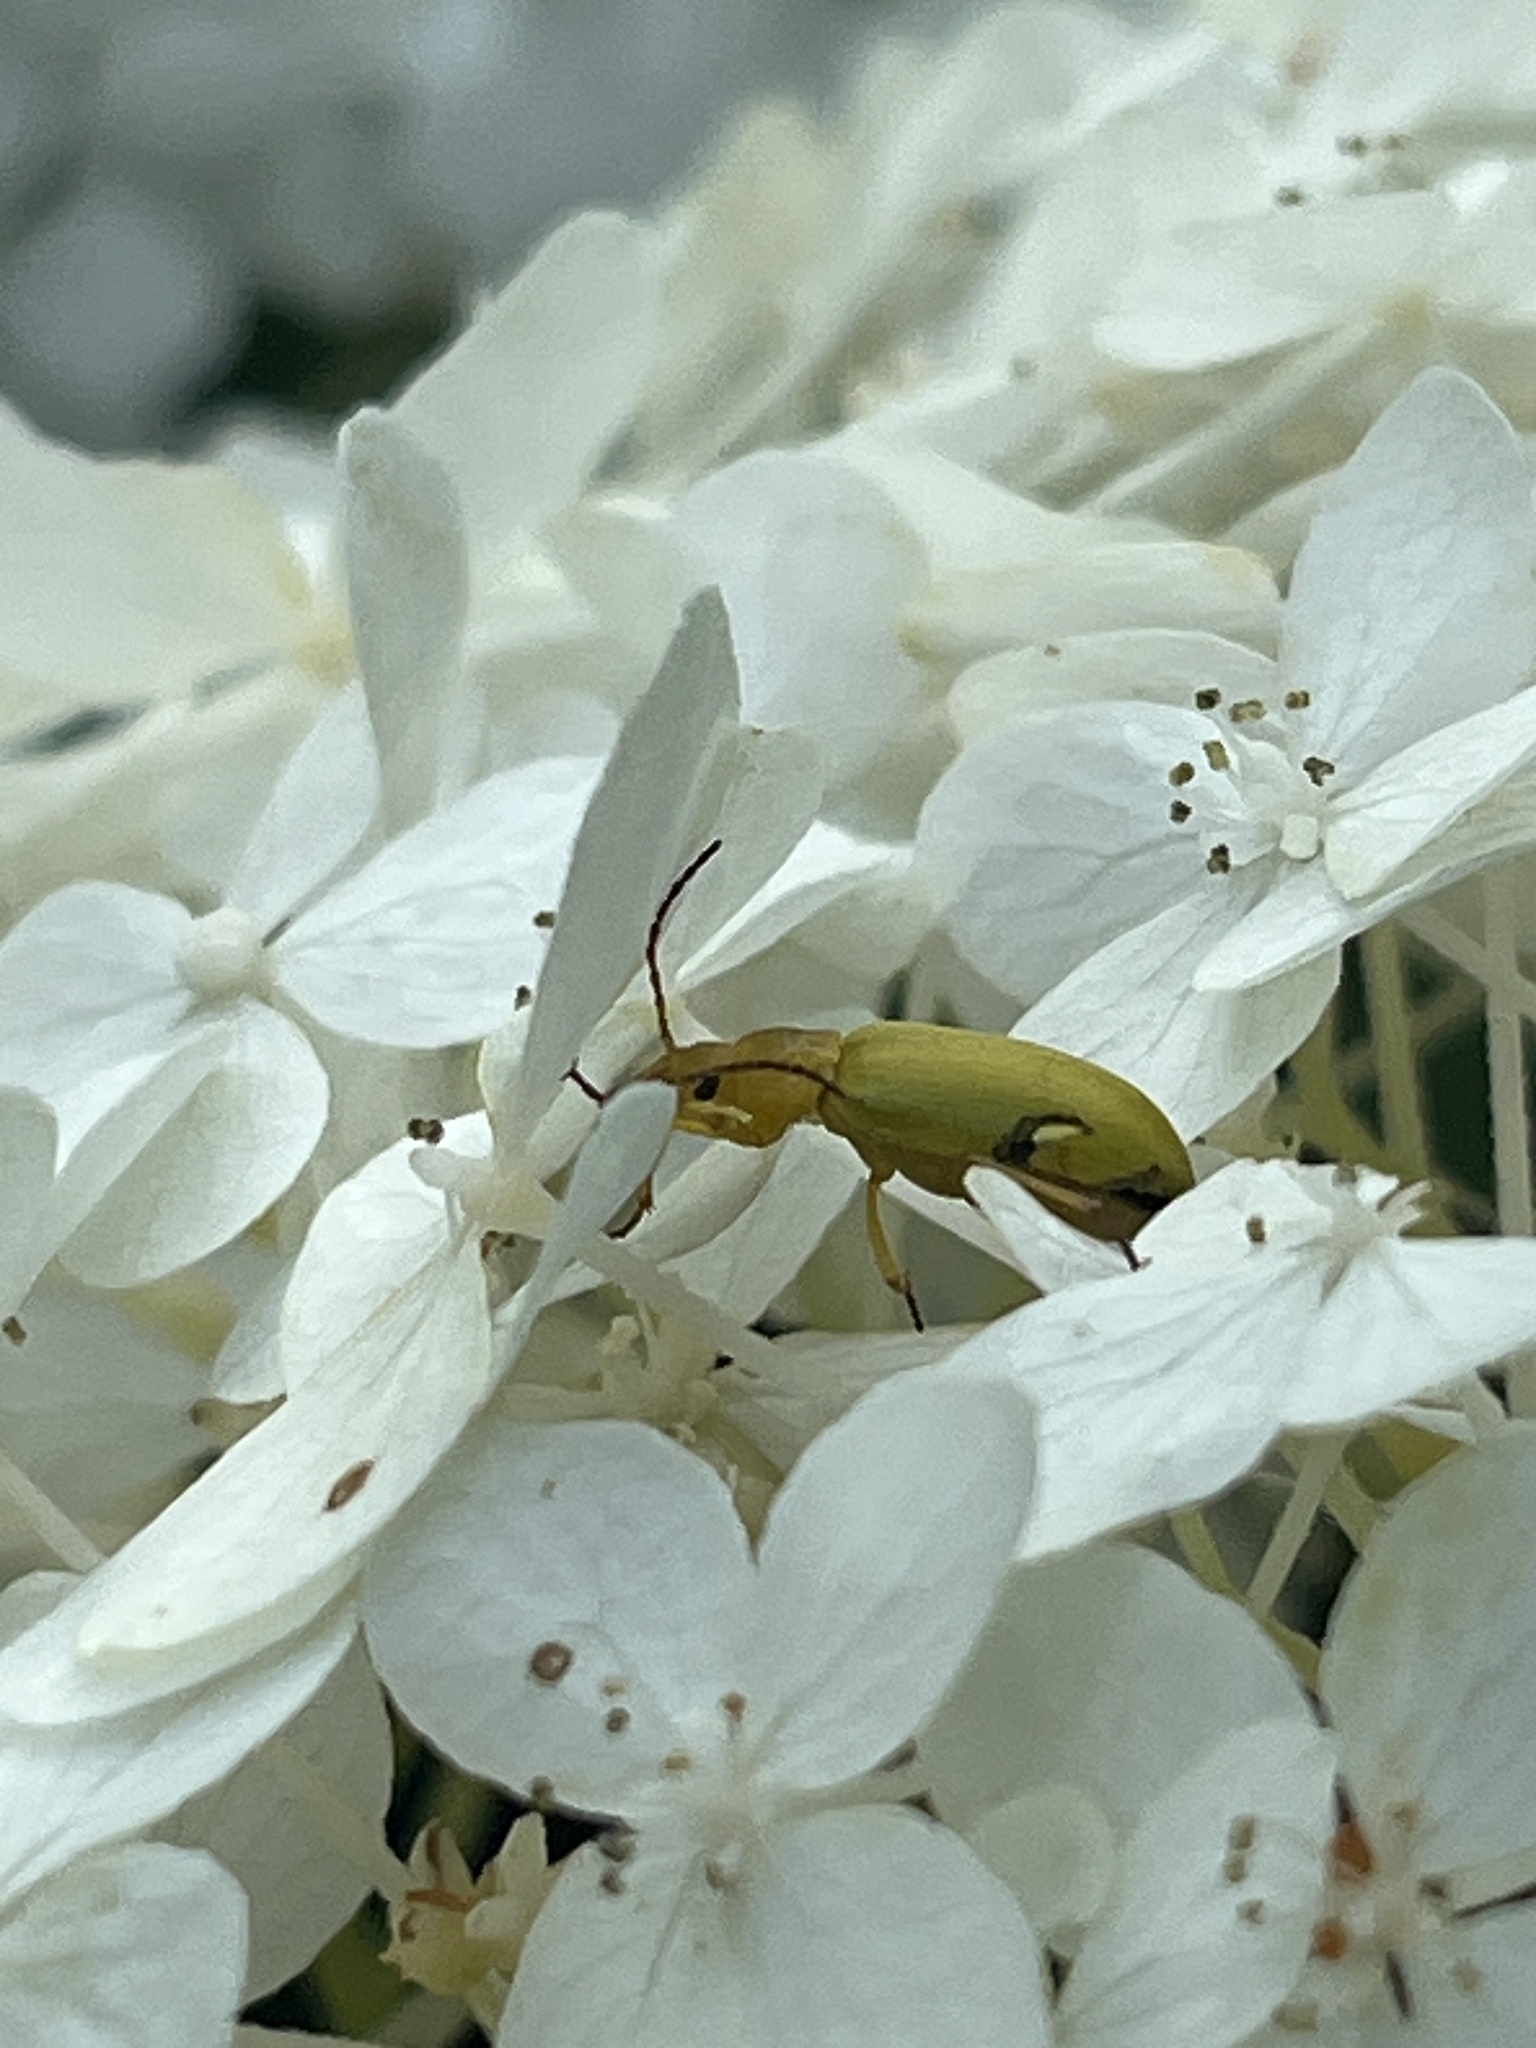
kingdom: Animalia
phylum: Arthropoda
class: Insecta
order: Coleoptera
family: Tenebrionidae
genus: Cteniopus
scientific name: Cteniopus sulphureus
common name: Sulphur beetle
